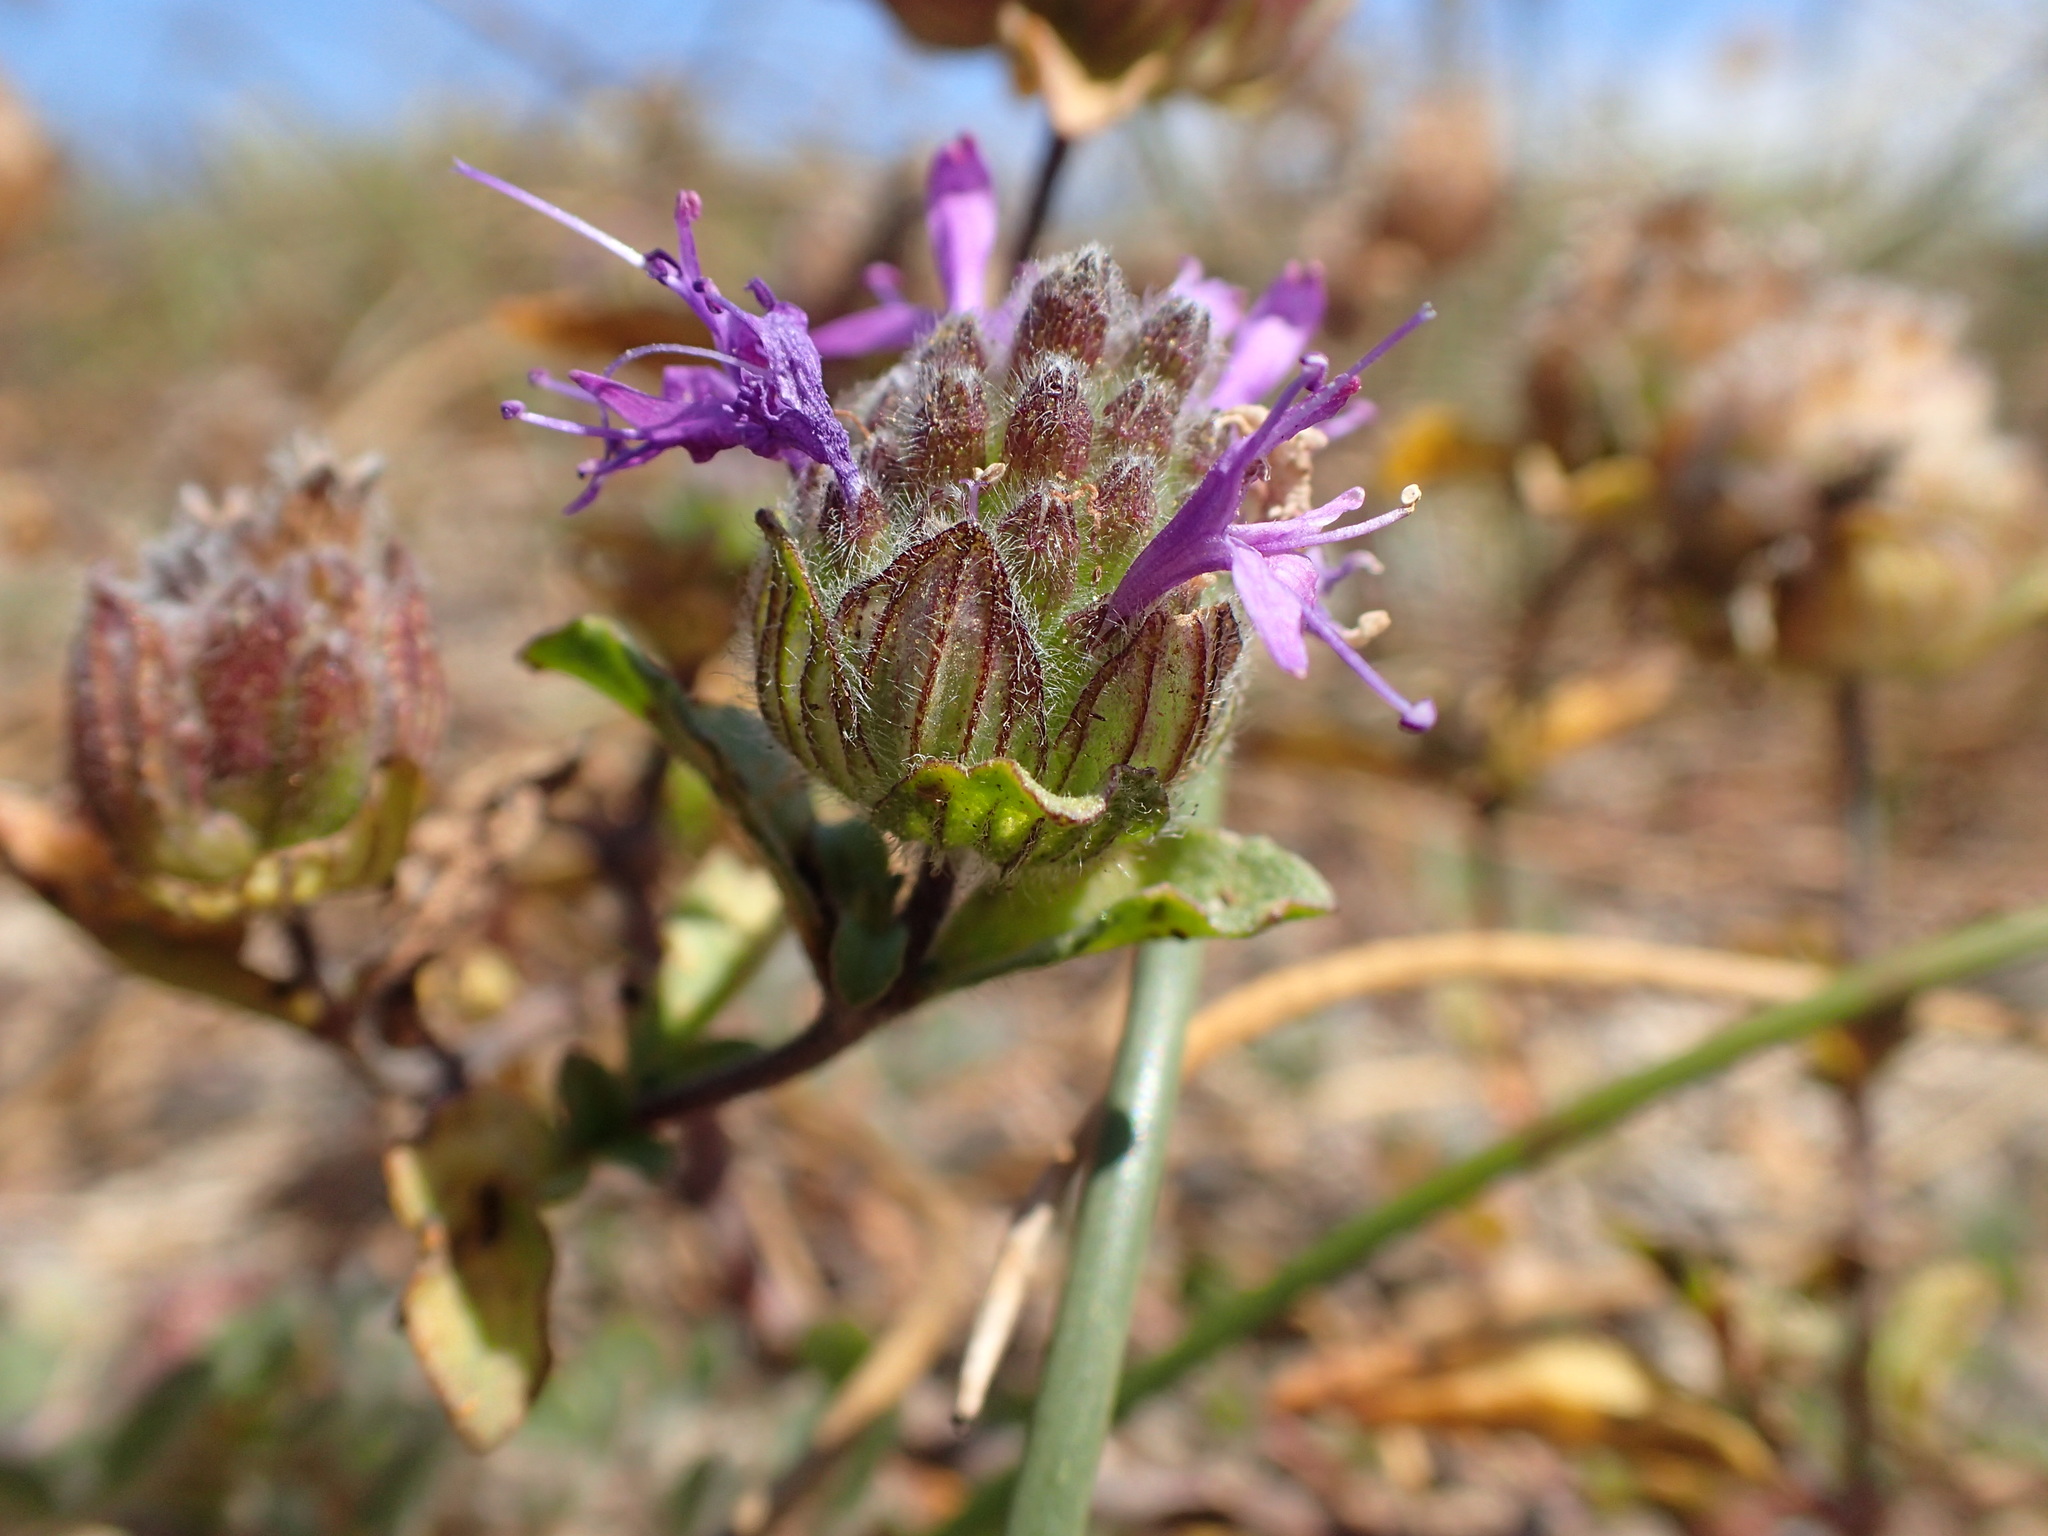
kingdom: Plantae
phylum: Tracheophyta
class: Magnoliopsida
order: Lamiales
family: Lamiaceae
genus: Monardella
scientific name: Monardella sinuata
